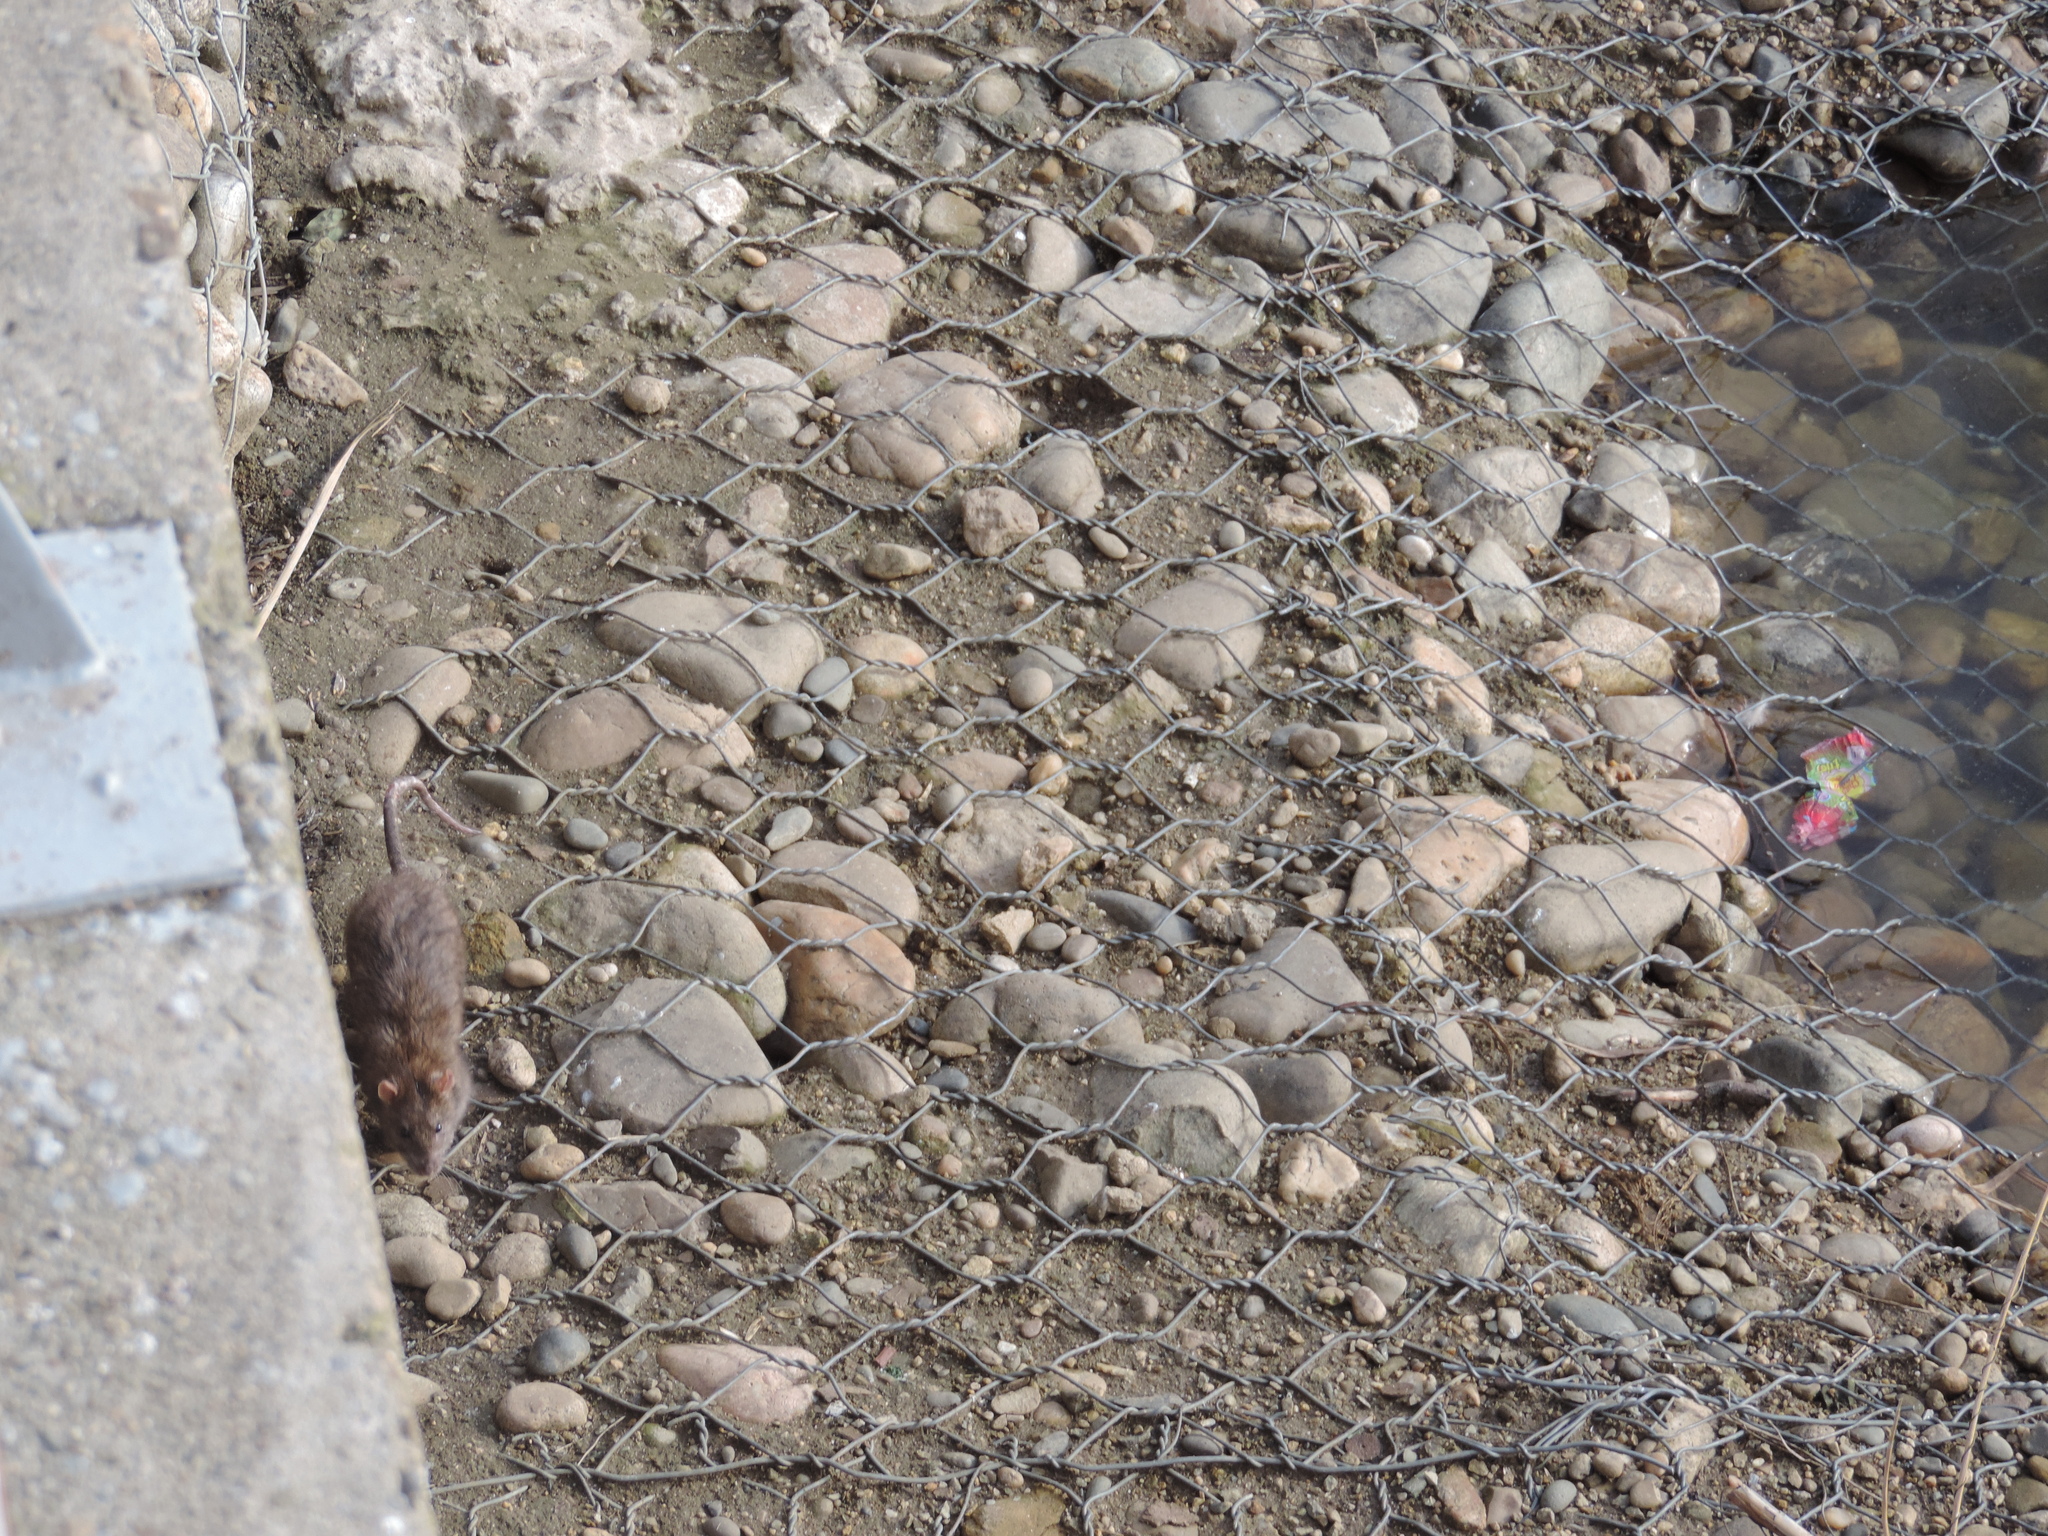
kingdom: Animalia
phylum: Chordata
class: Mammalia
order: Rodentia
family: Muridae
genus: Rattus
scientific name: Rattus norvegicus
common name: Brown rat
